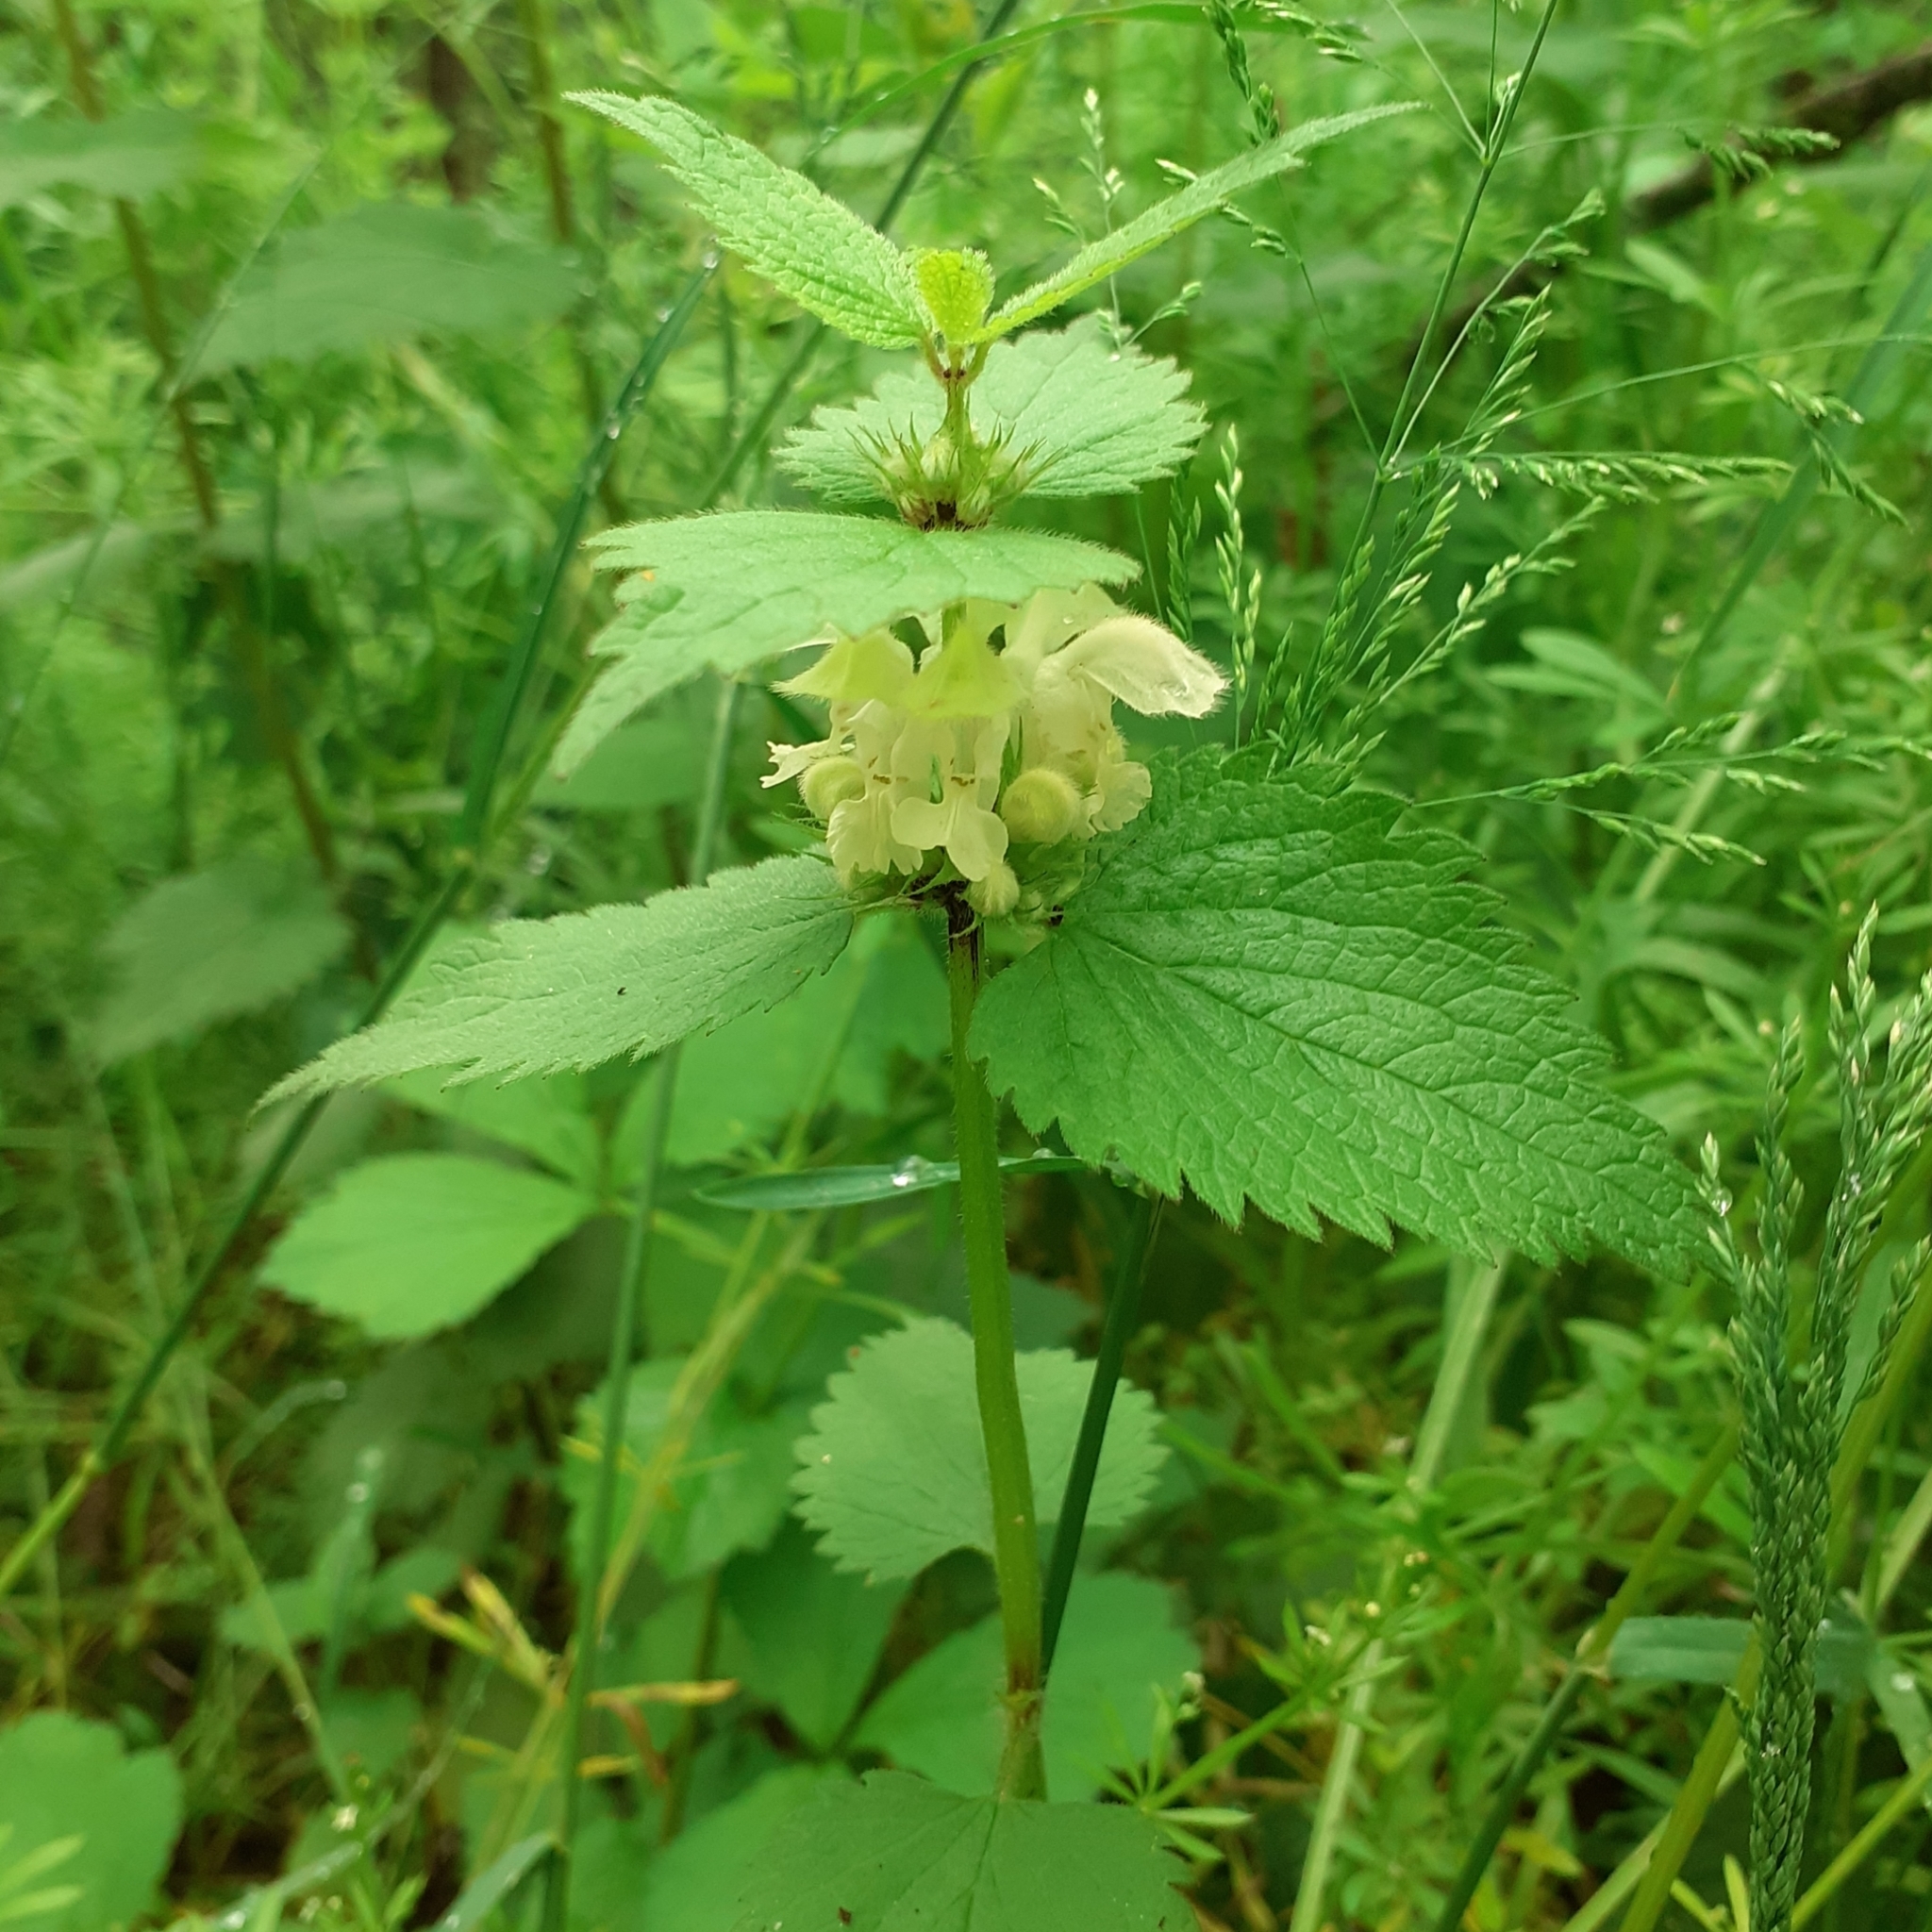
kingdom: Plantae
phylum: Tracheophyta
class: Magnoliopsida
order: Lamiales
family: Lamiaceae
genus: Lamium
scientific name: Lamium album
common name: White dead-nettle
